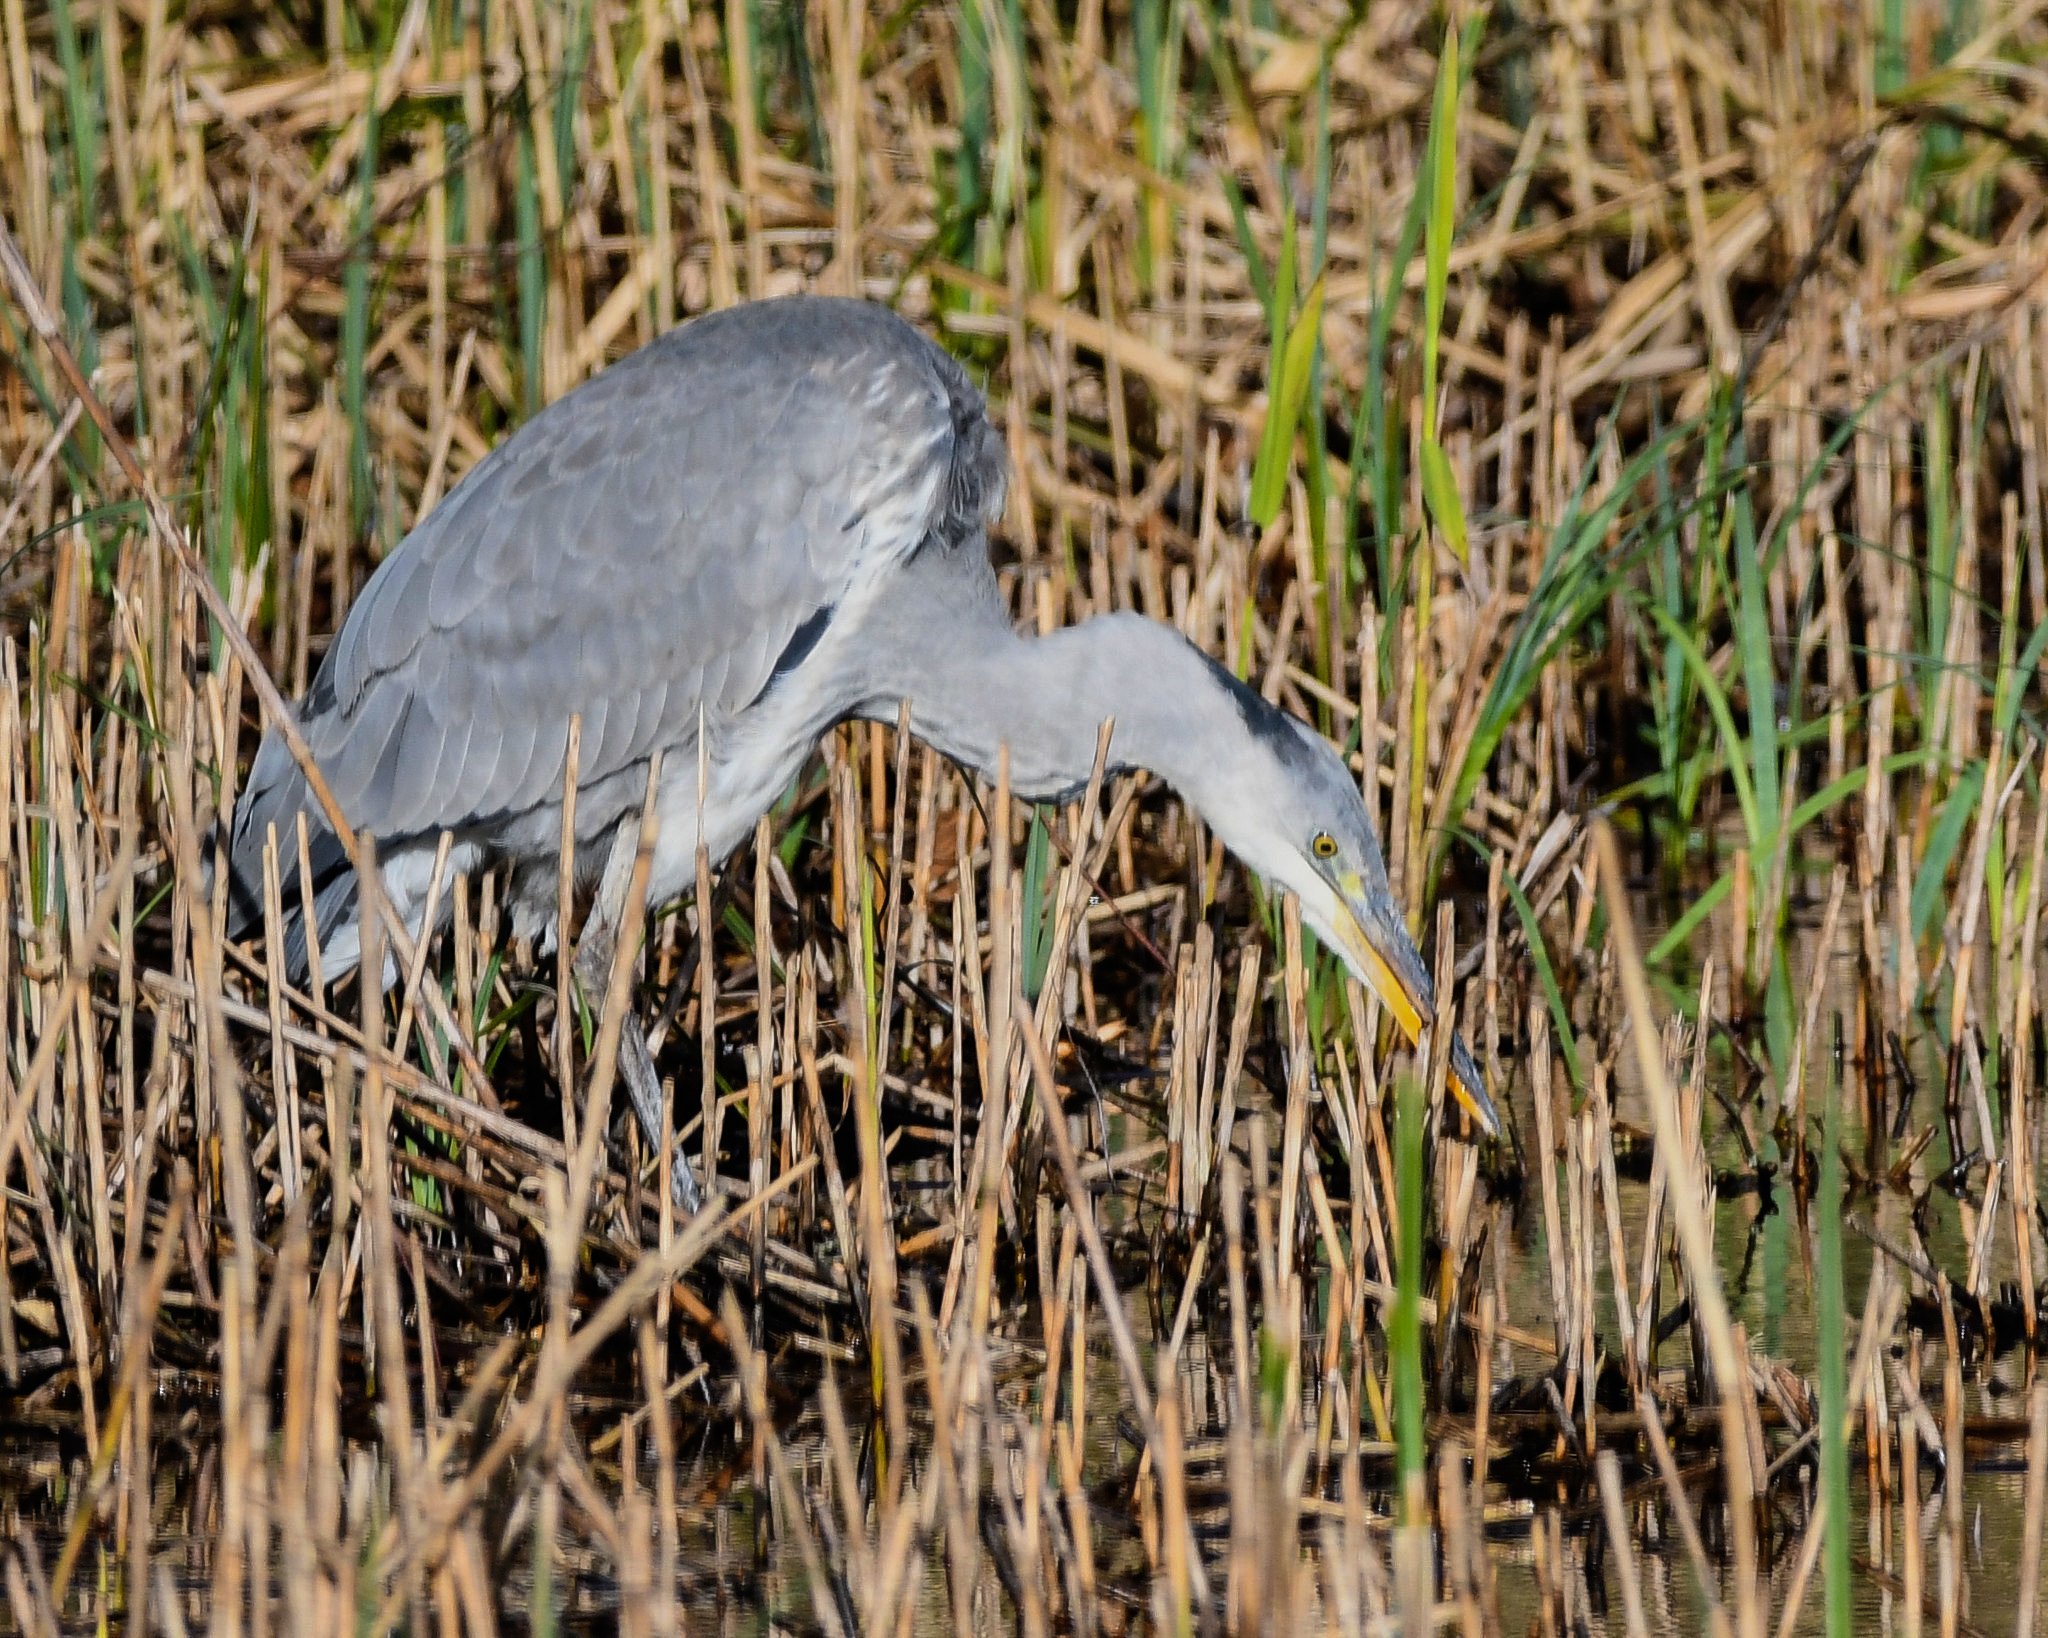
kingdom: Animalia
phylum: Chordata
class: Aves
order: Pelecaniformes
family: Ardeidae
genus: Ardea
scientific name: Ardea cinerea
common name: Grey heron
